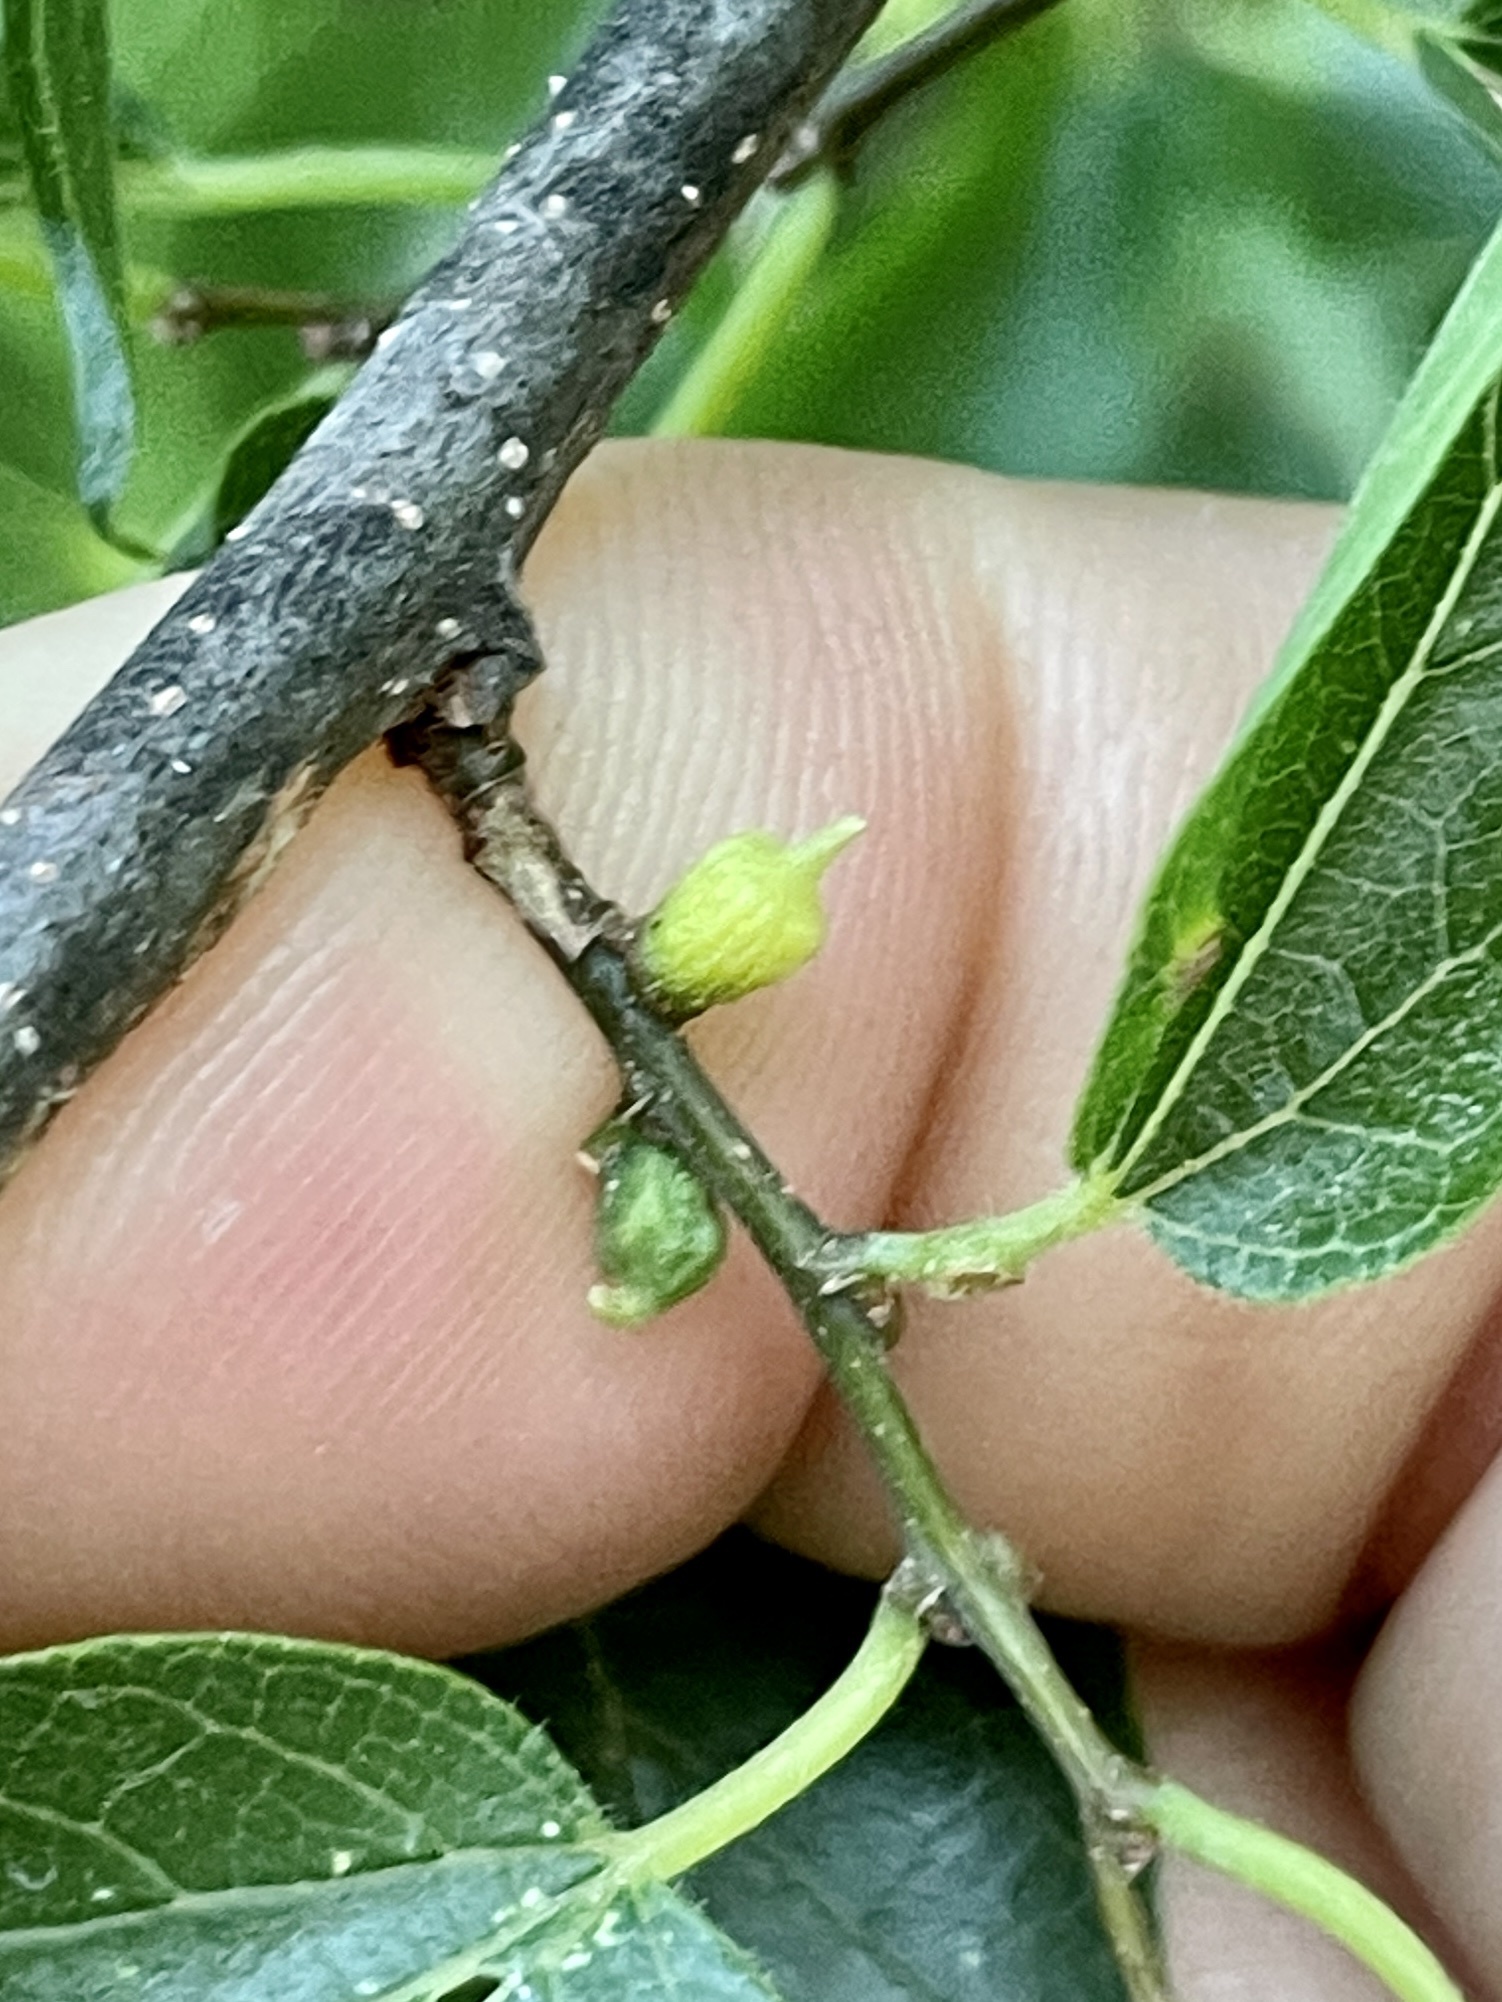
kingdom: Animalia
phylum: Arthropoda
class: Insecta
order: Diptera
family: Cecidomyiidae
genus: Celticecis
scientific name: Celticecis ramicola
